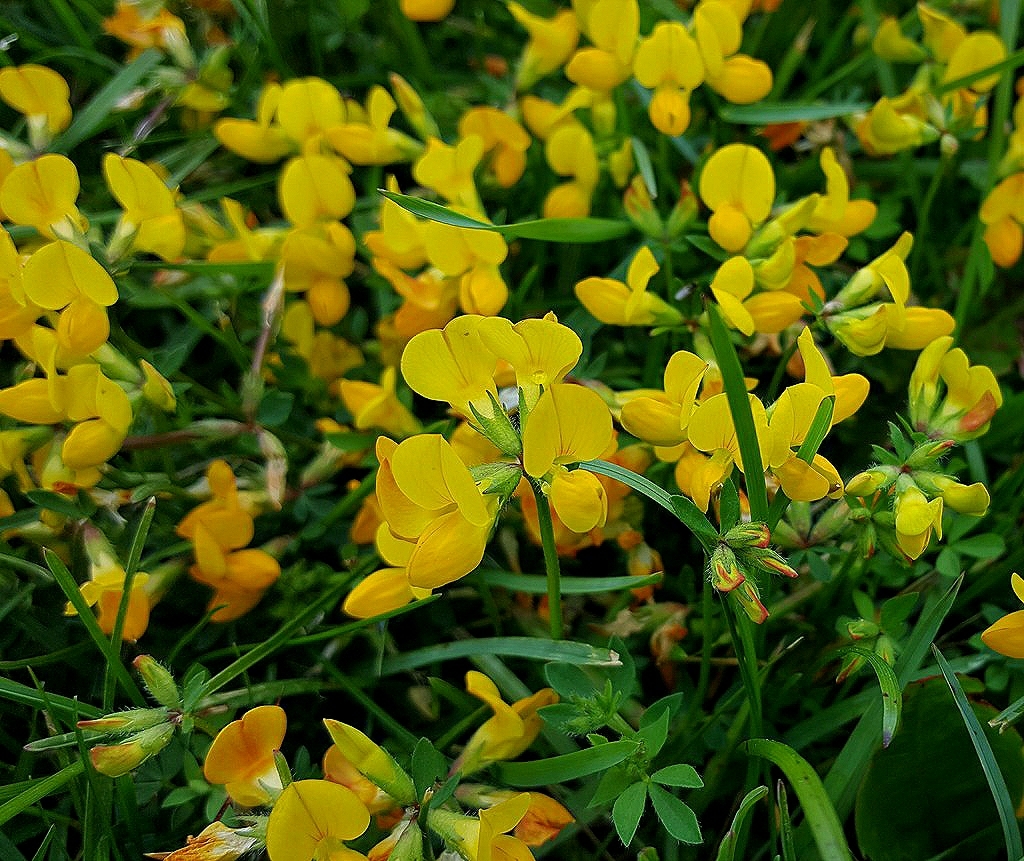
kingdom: Plantae
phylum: Tracheophyta
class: Magnoliopsida
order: Fabales
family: Fabaceae
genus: Lotus
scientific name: Lotus corniculatus
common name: Common bird's-foot-trefoil
